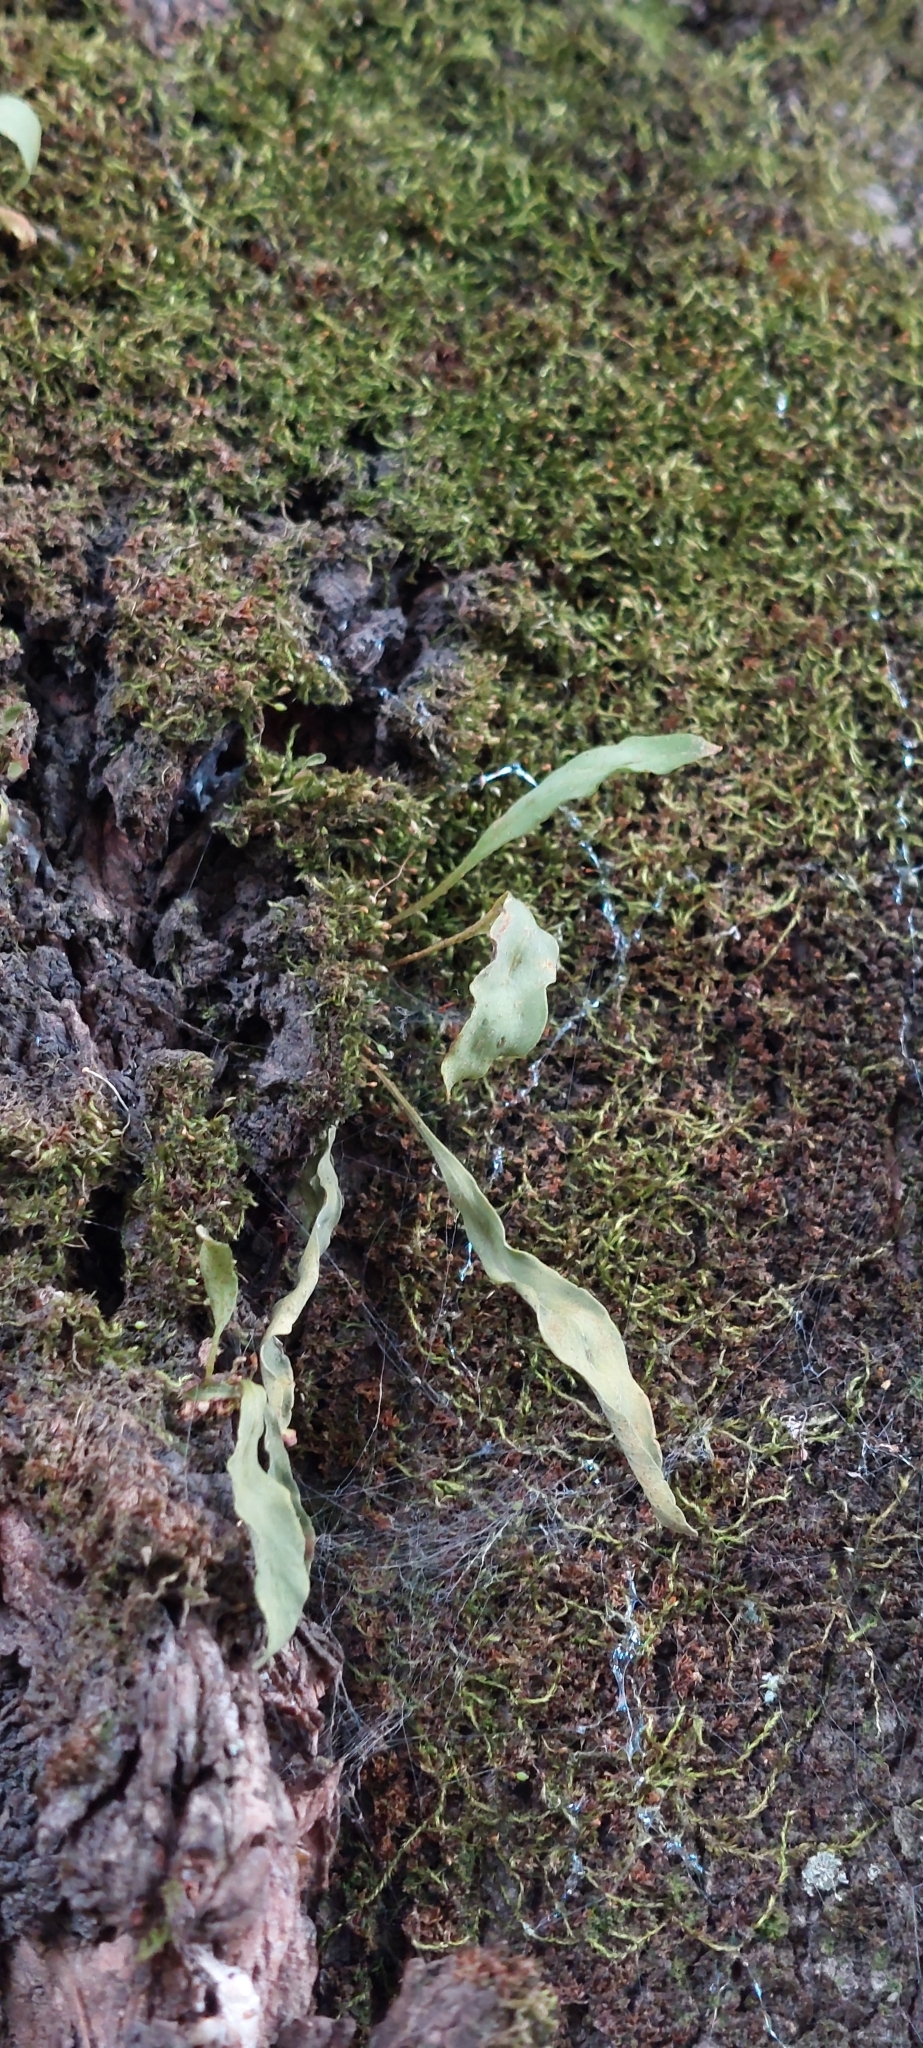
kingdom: Plantae
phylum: Tracheophyta
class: Polypodiopsida
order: Polypodiales
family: Polypodiaceae
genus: Pleopeltis
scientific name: Pleopeltis macrocarpa
